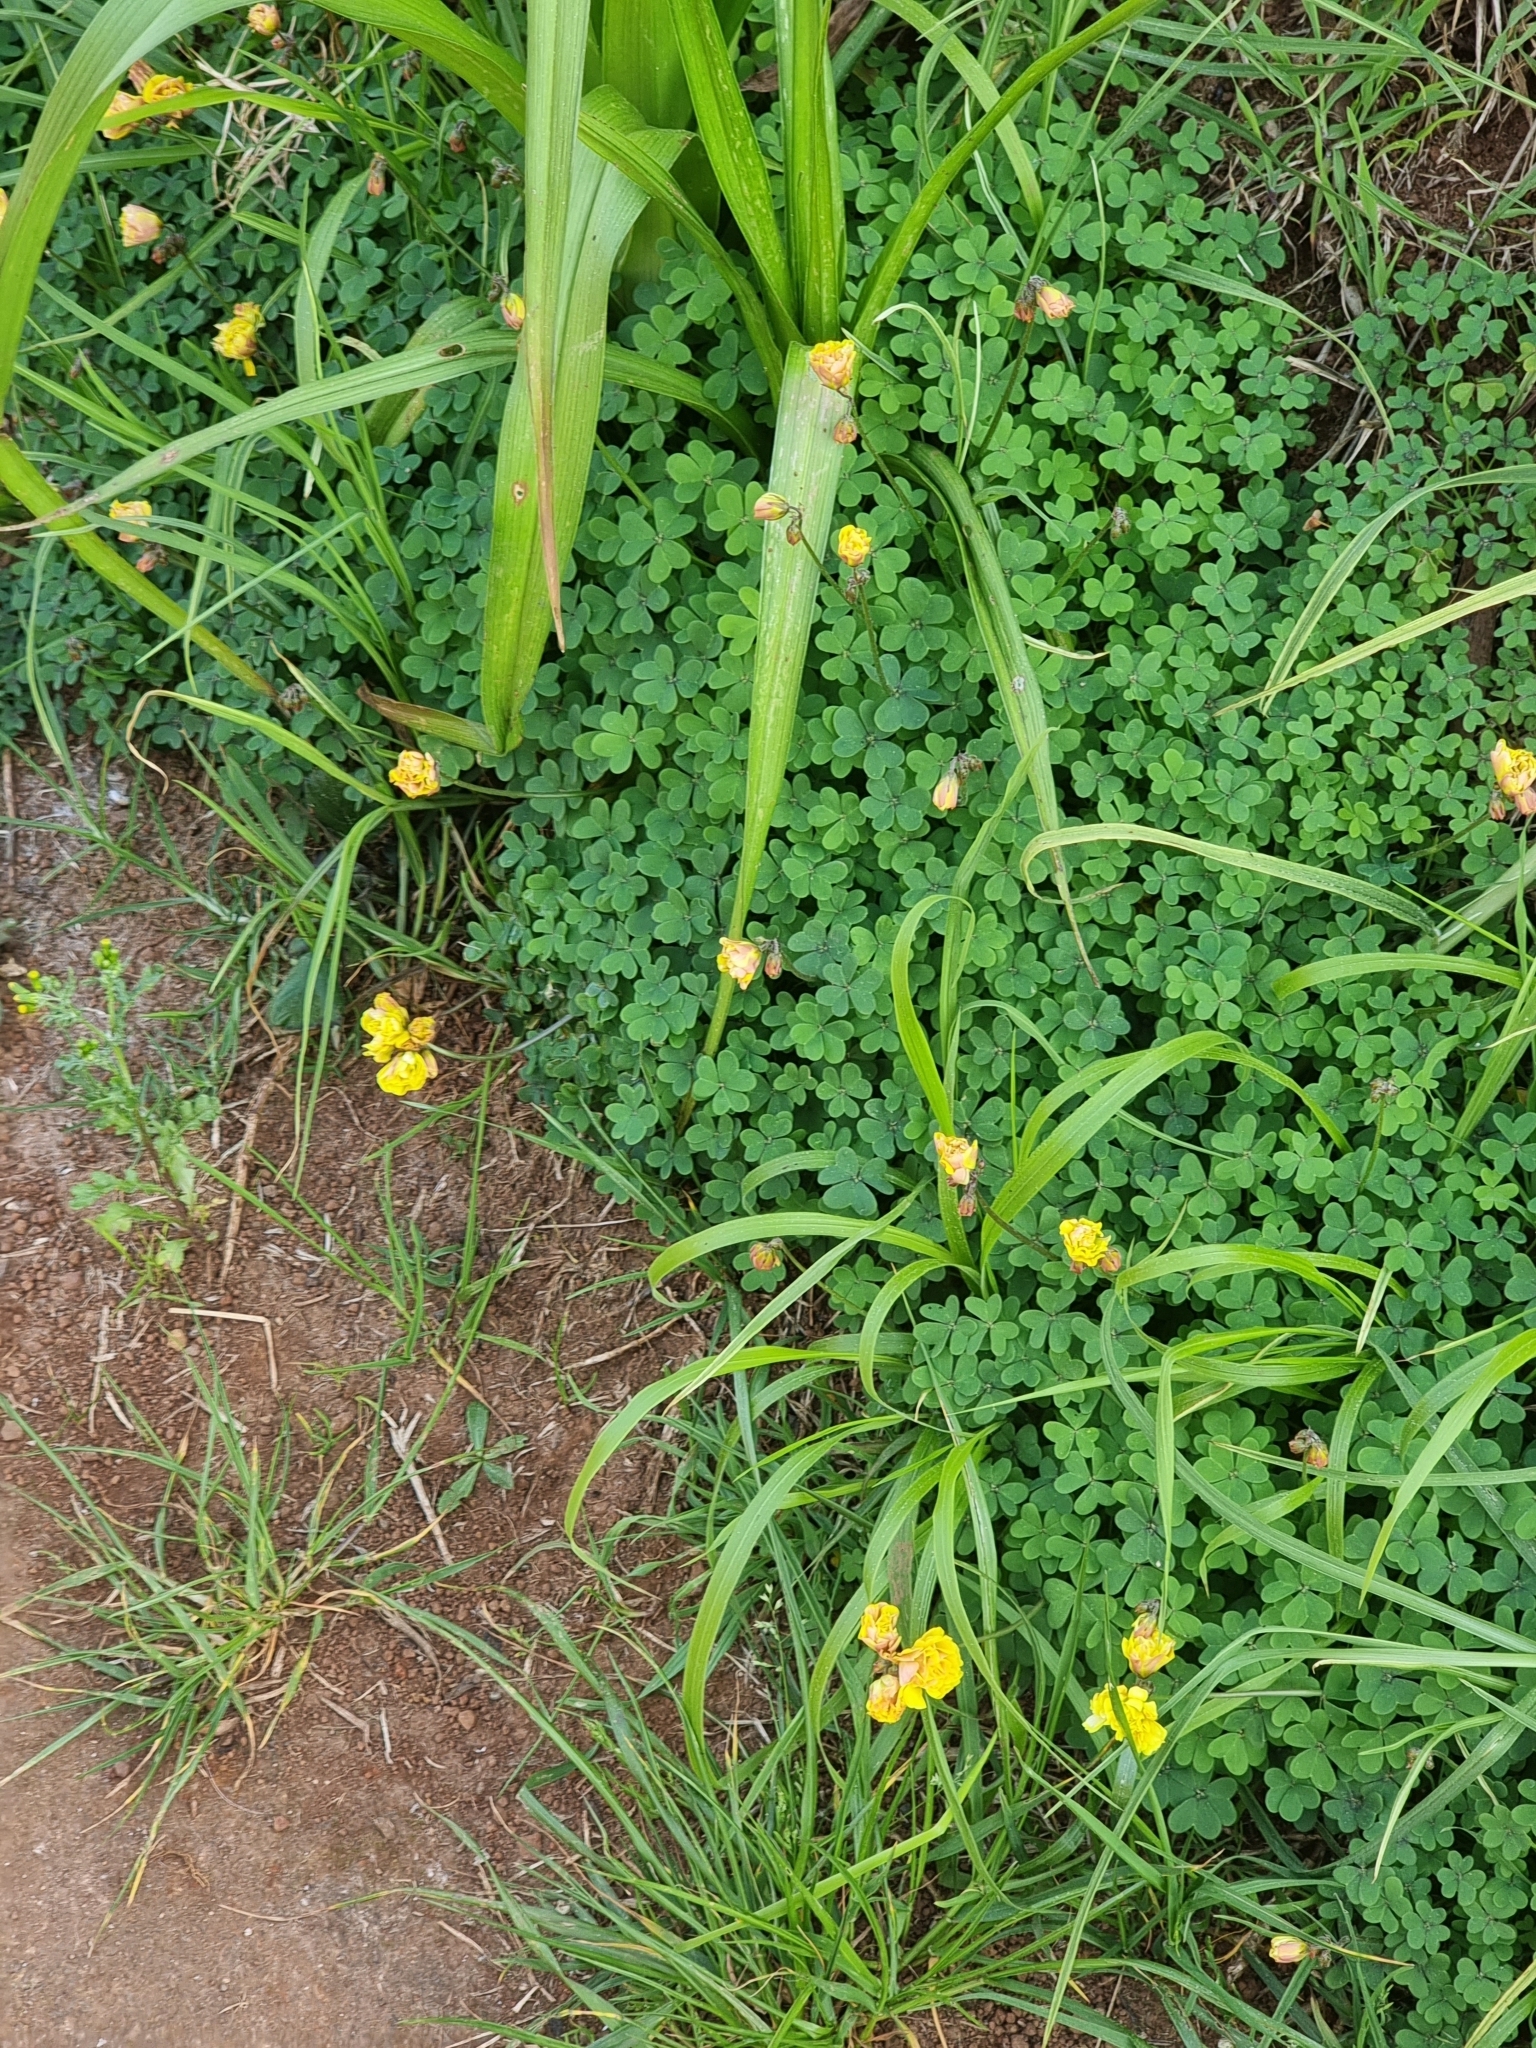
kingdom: Plantae
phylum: Tracheophyta
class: Magnoliopsida
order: Oxalidales
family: Oxalidaceae
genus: Oxalis
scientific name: Oxalis pes-caprae
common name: Bermuda-buttercup
